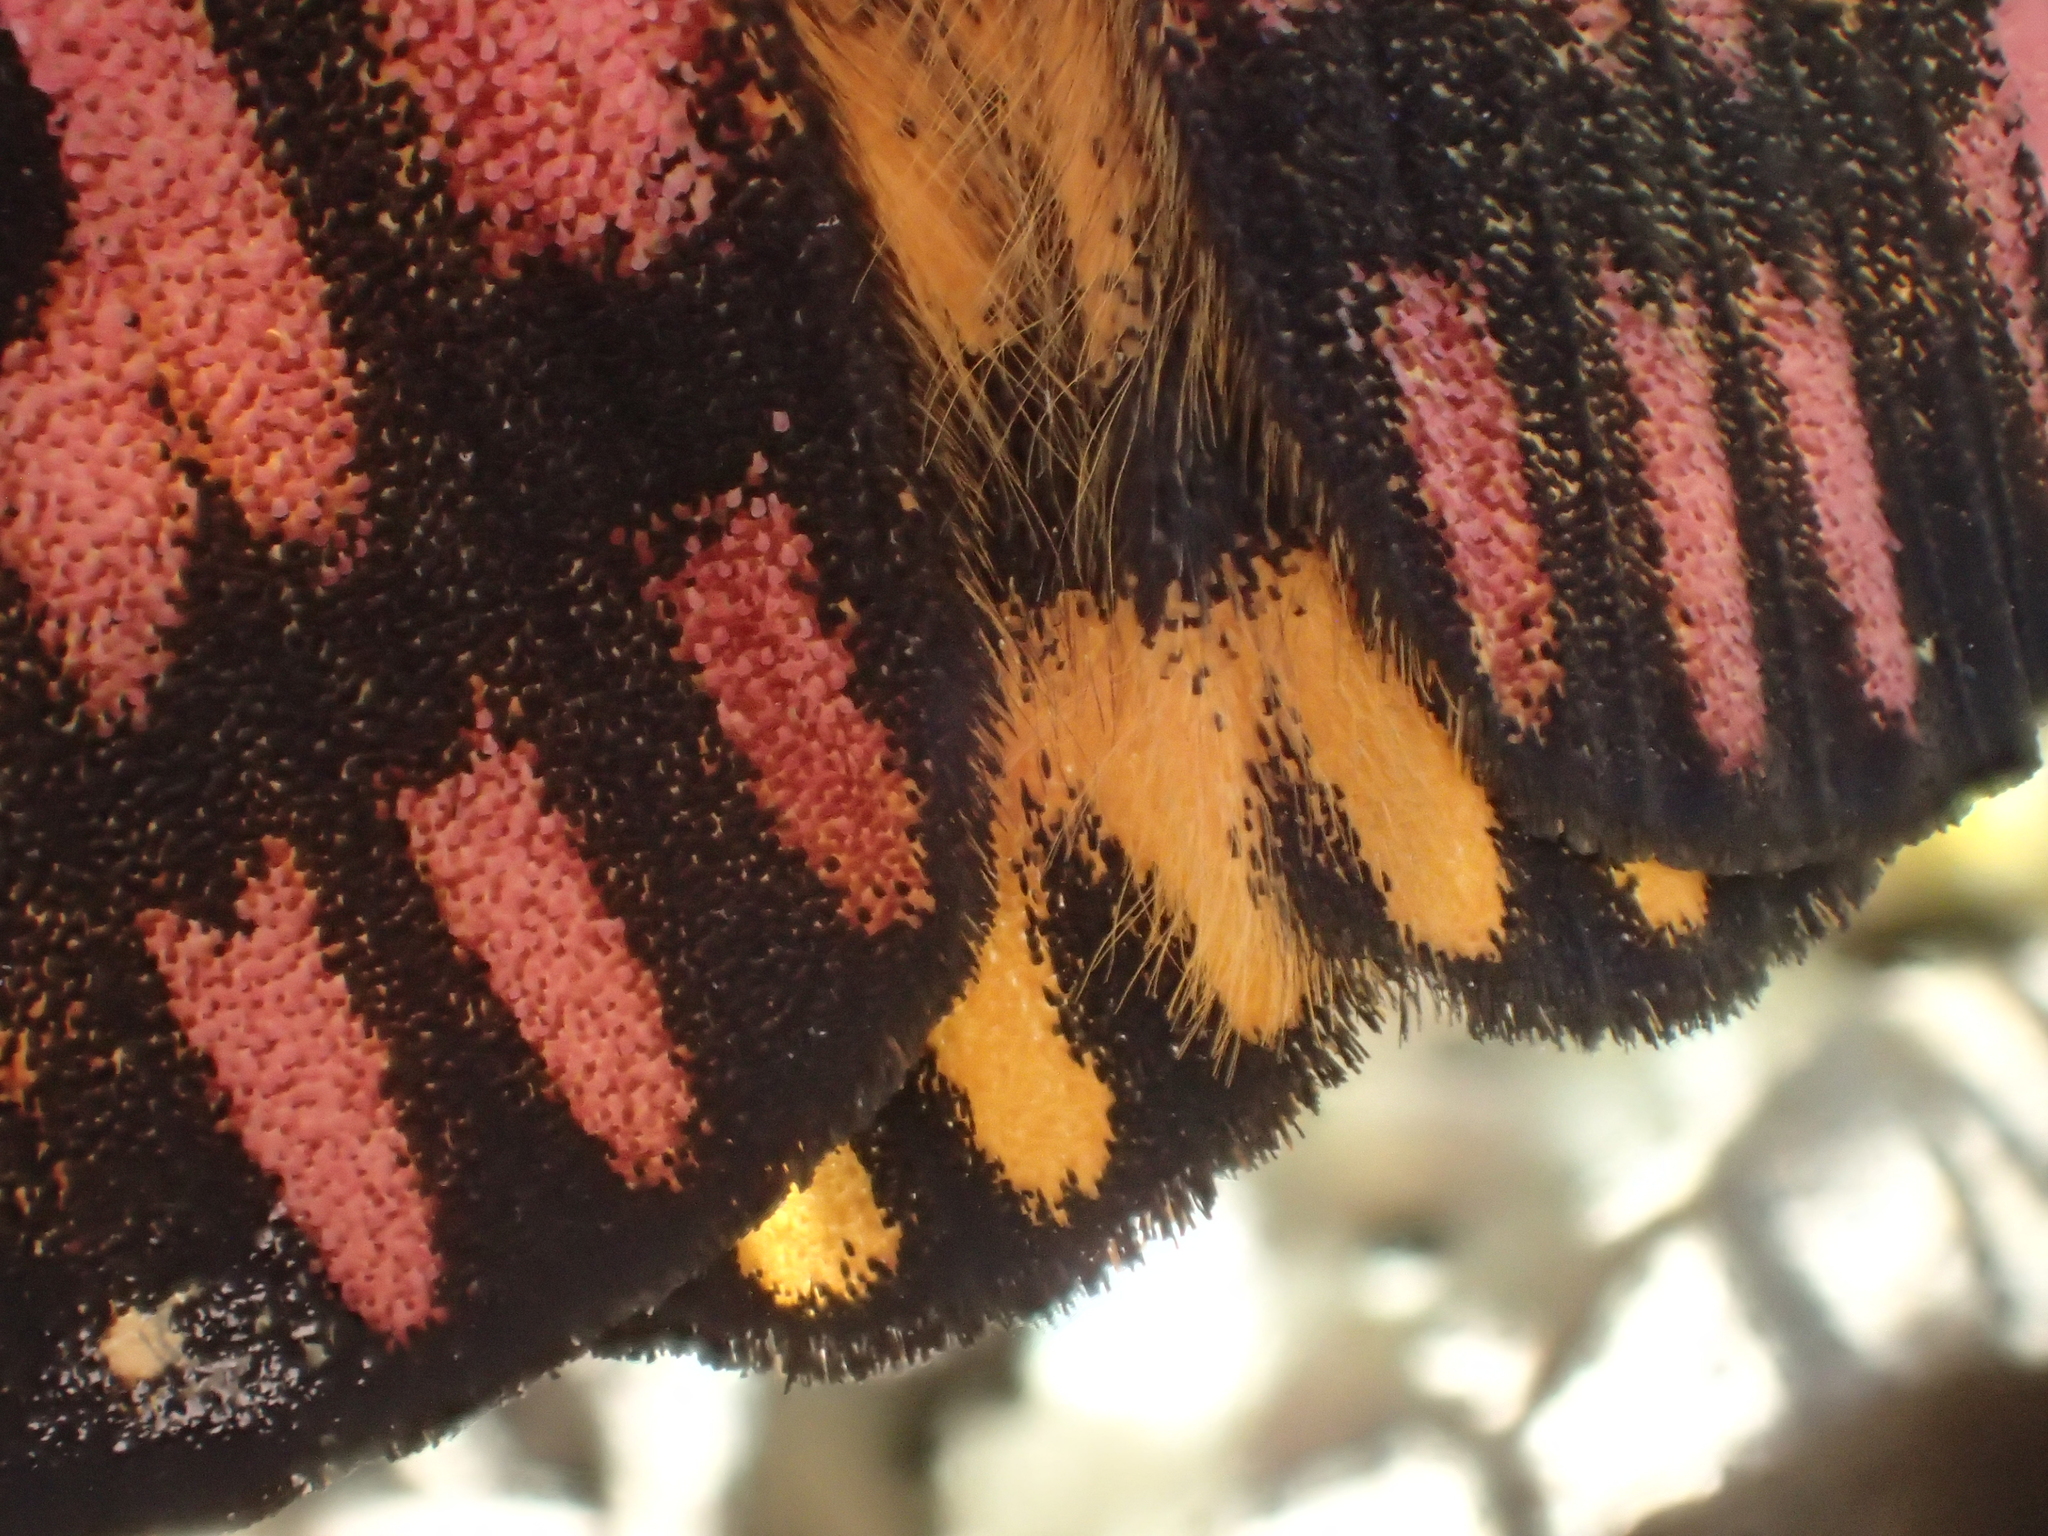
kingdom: Animalia
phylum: Arthropoda
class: Insecta
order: Lepidoptera
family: Saturniidae
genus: Hemileuca
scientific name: Hemileuca eglanterina
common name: Western sheepmoth
